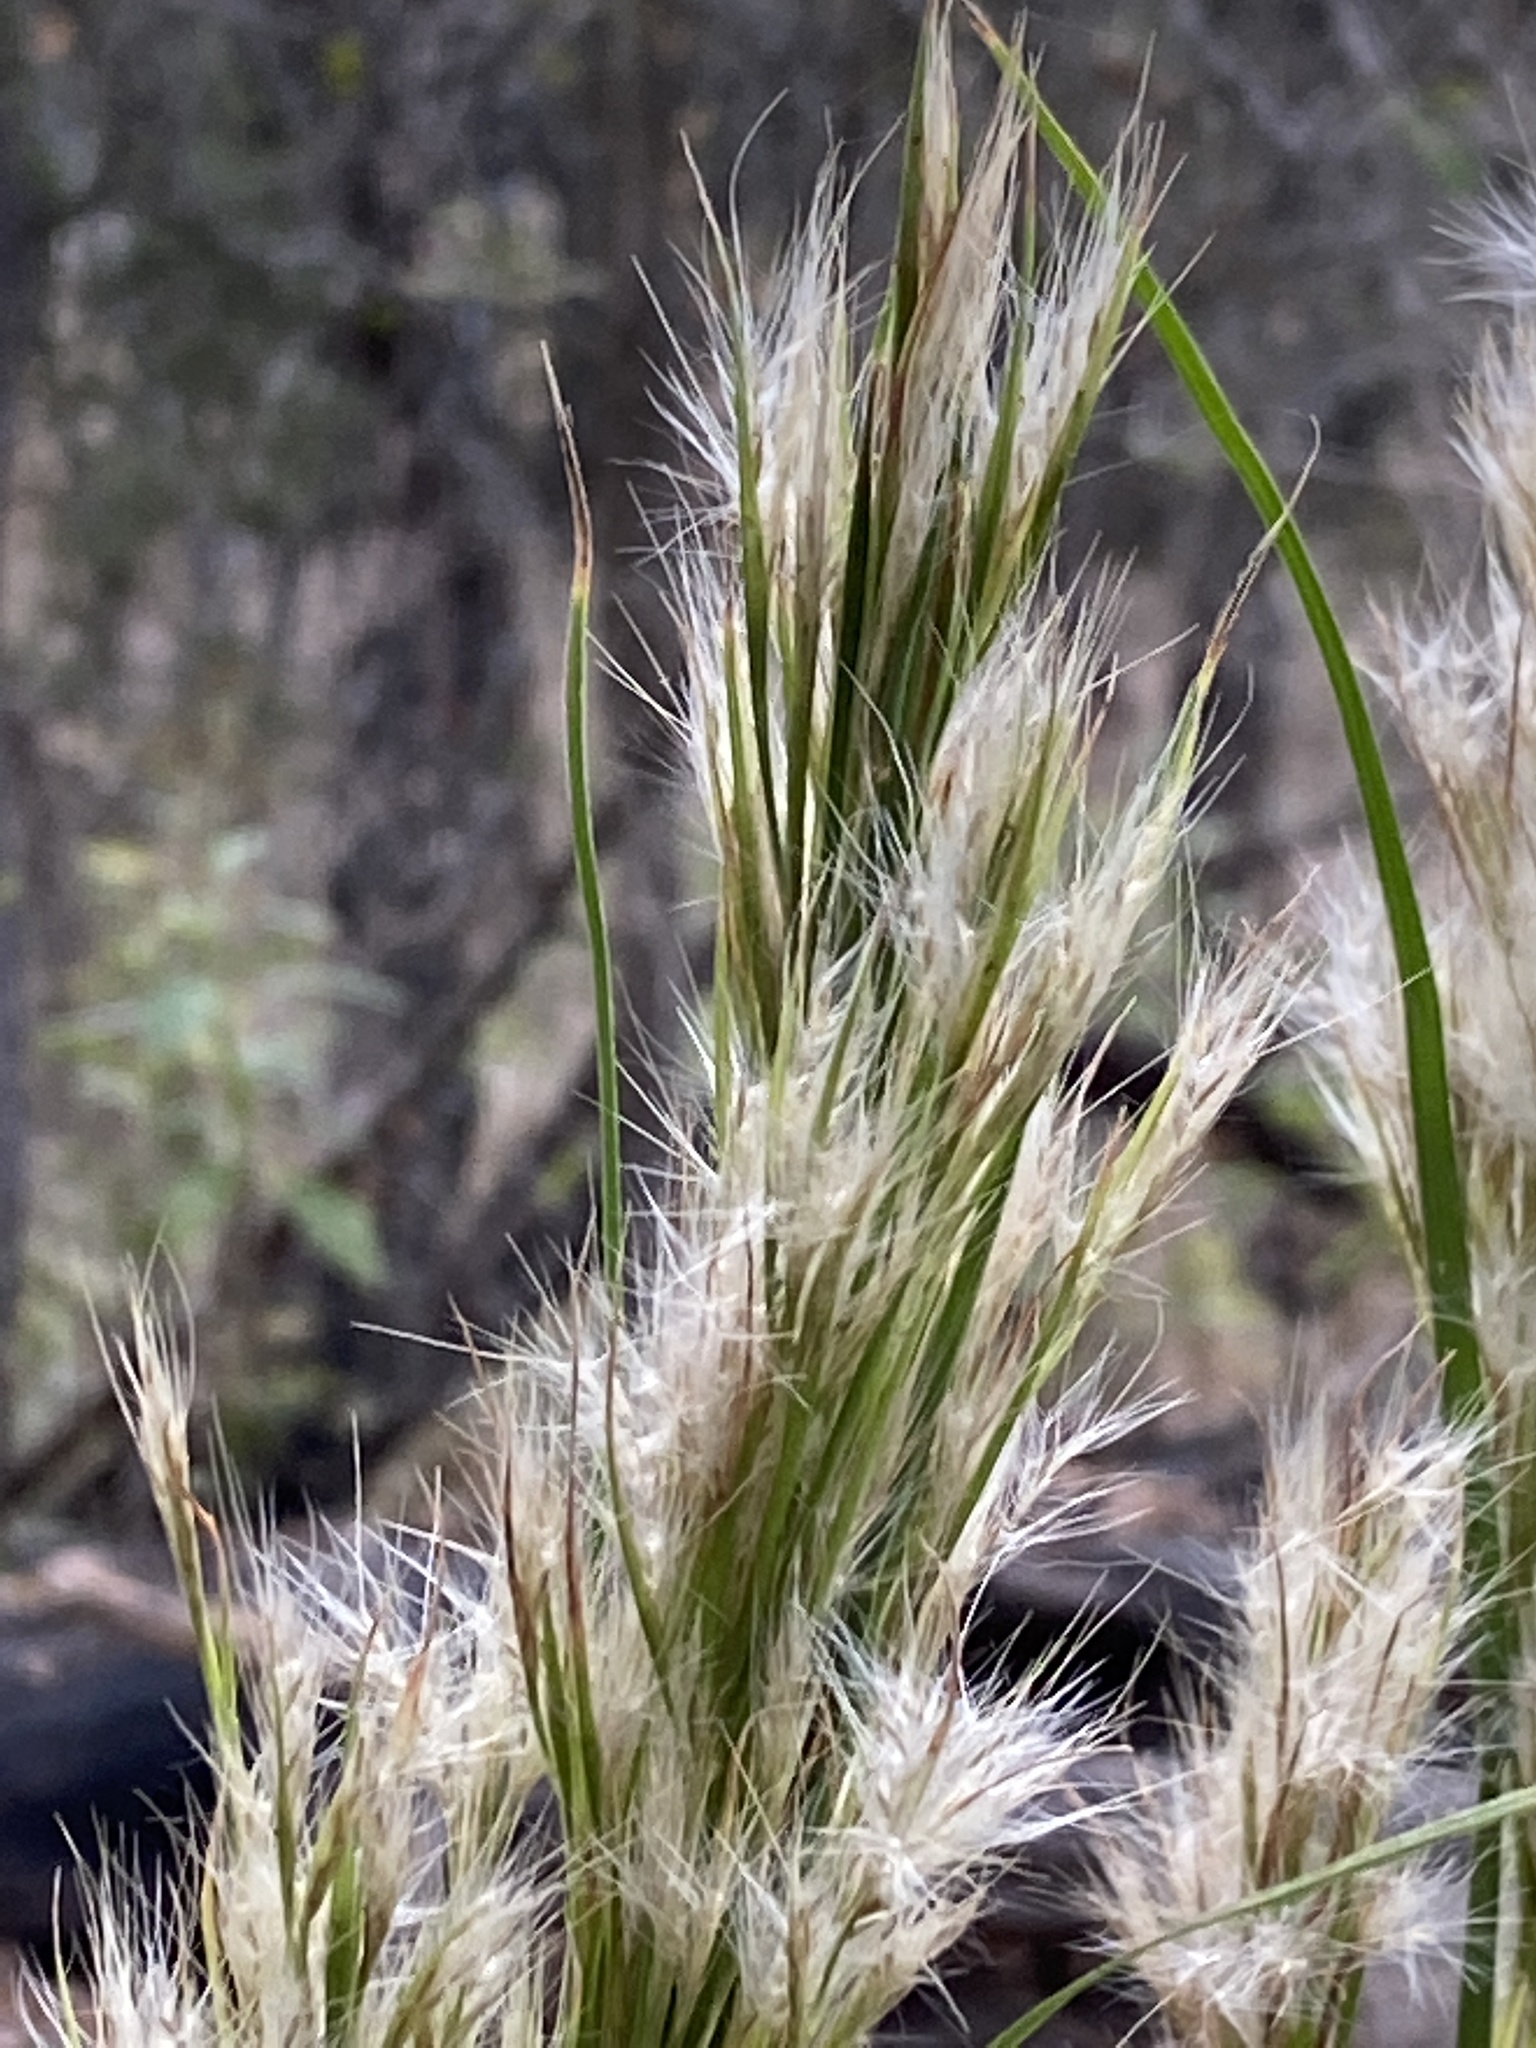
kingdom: Plantae
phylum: Tracheophyta
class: Liliopsida
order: Poales
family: Poaceae
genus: Andropogon
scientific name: Andropogon tenuispatheus
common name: Bushy bluestem
